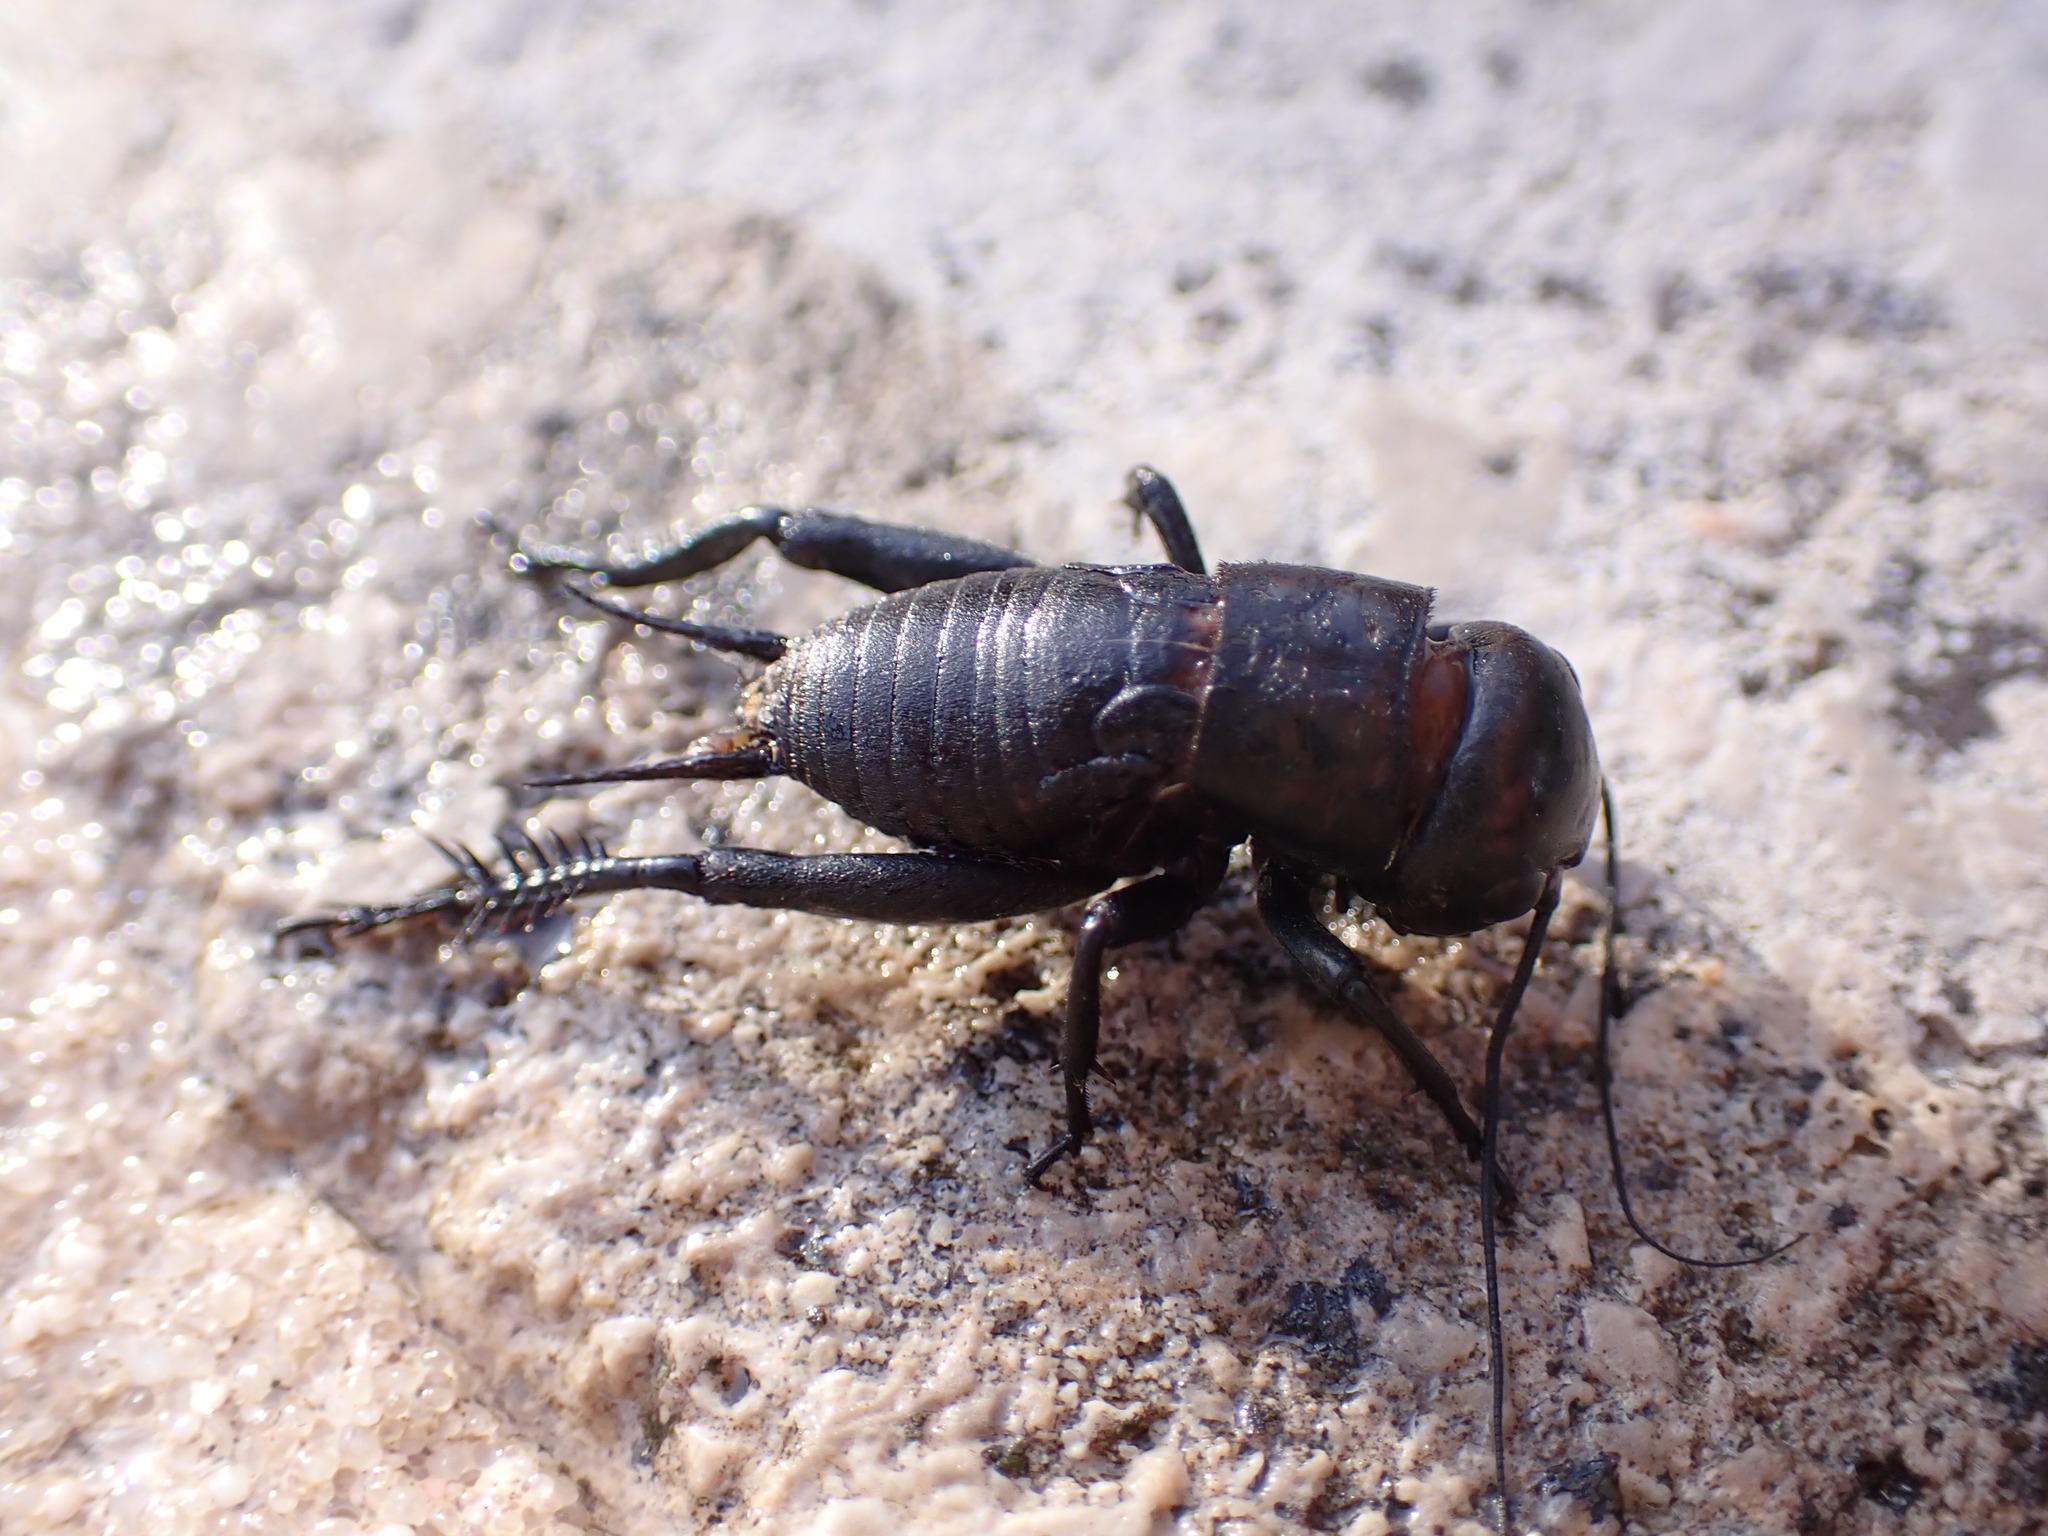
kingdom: Animalia
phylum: Arthropoda
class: Insecta
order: Orthoptera
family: Gryllidae
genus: Gryllus
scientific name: Gryllus campestris
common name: Field cricket
